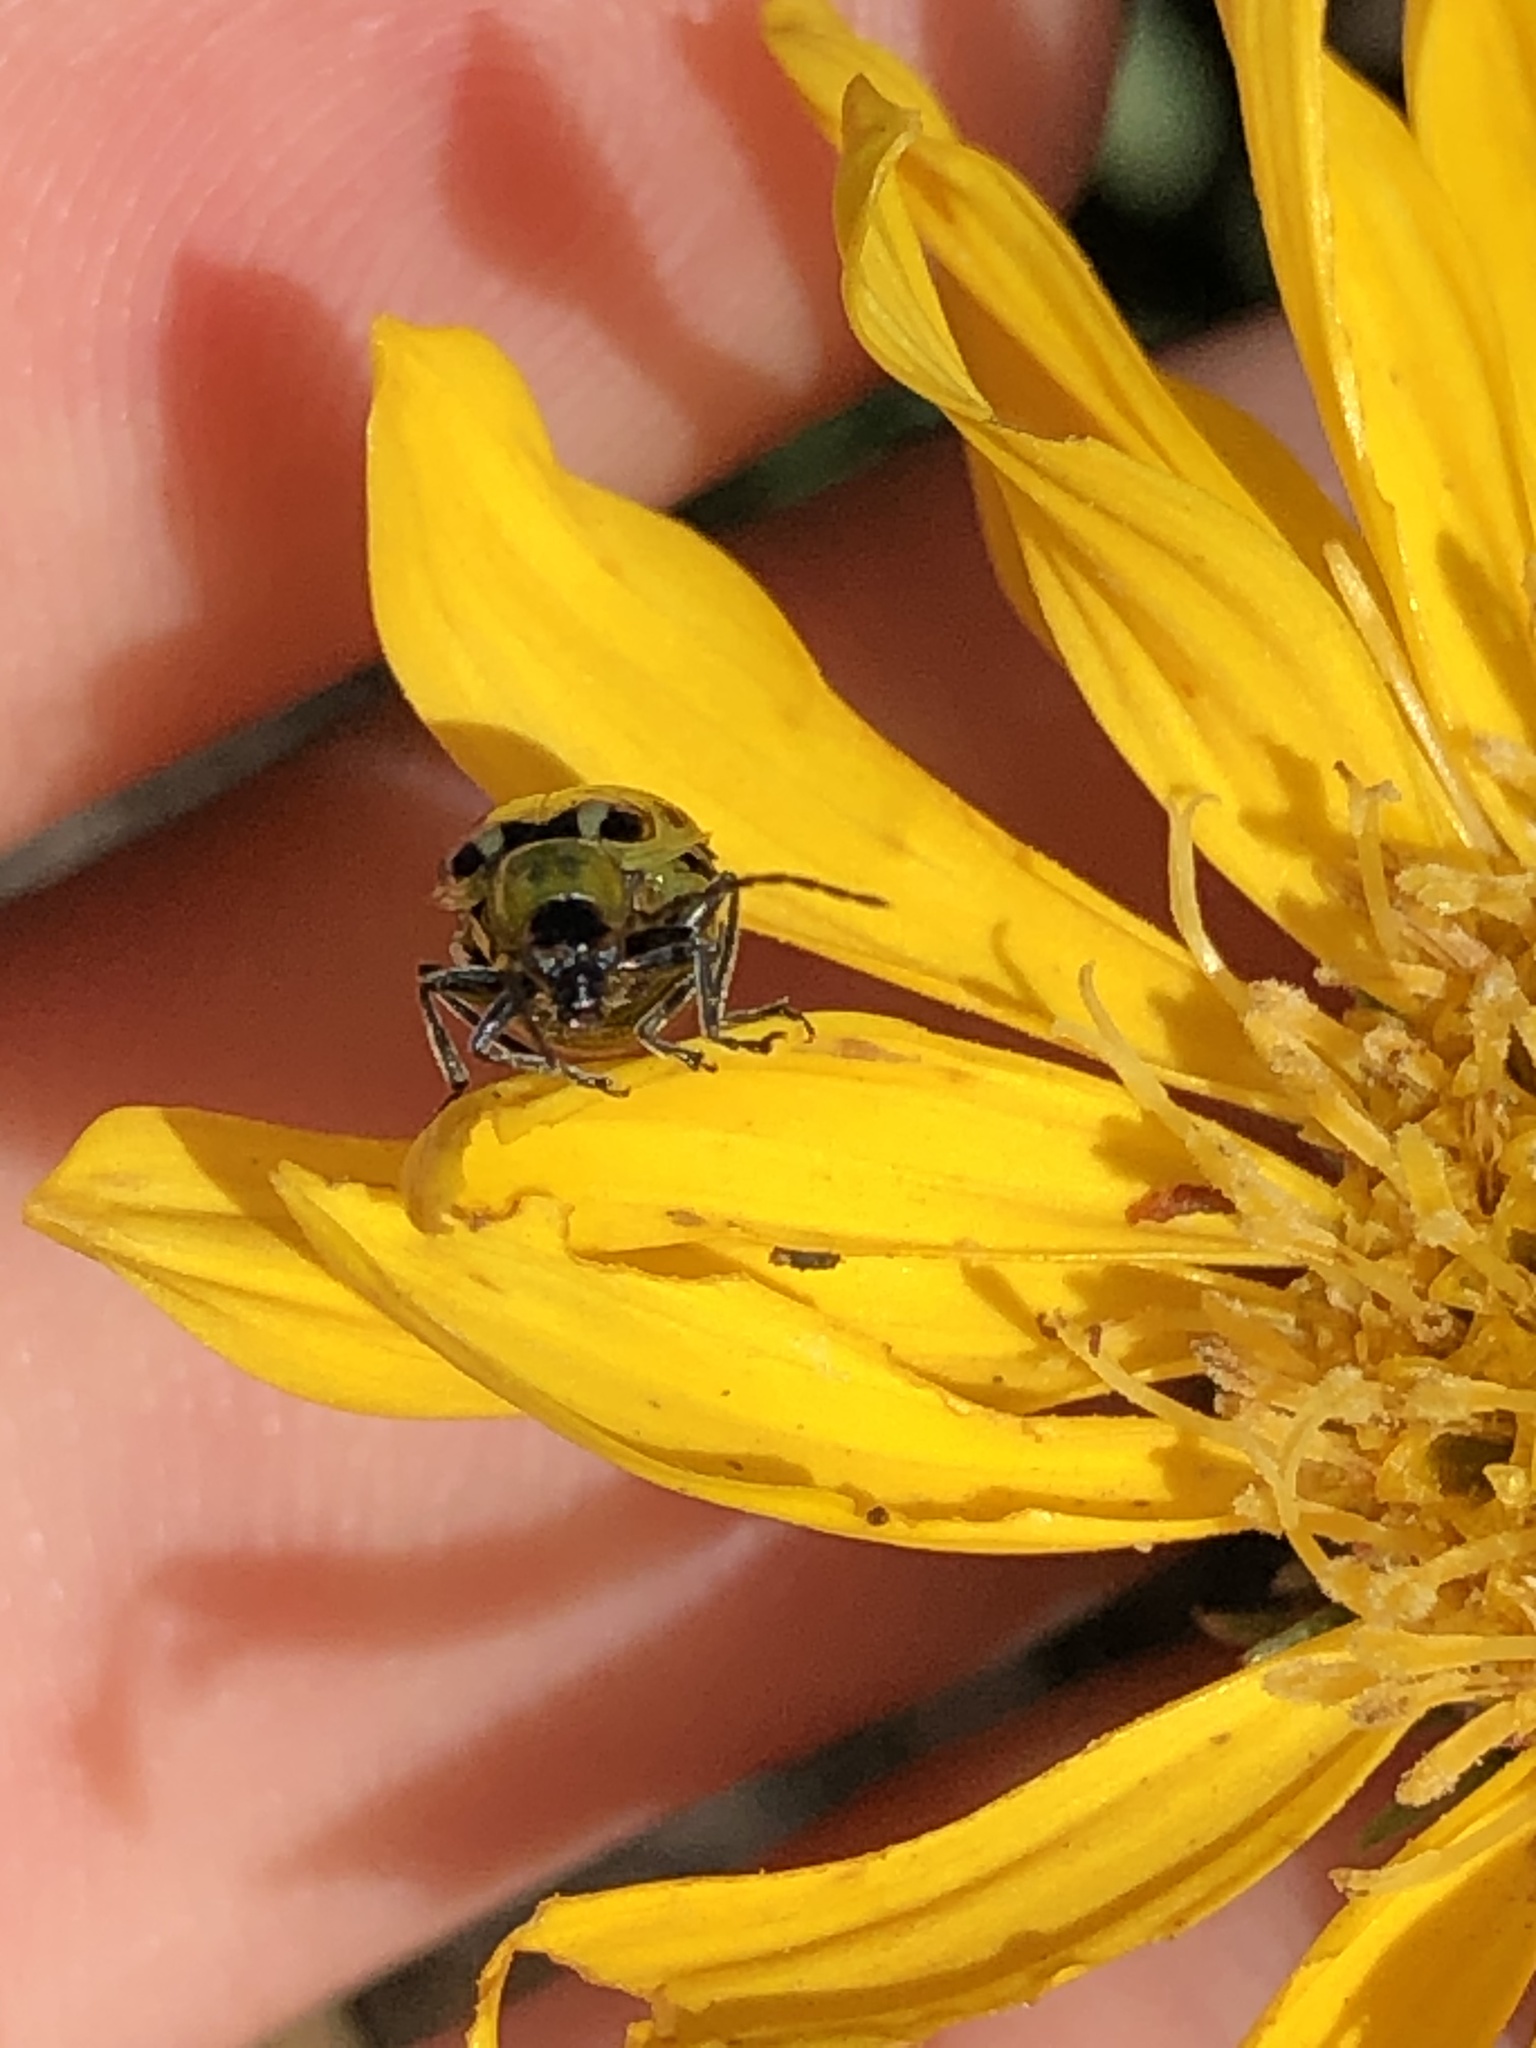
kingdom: Animalia
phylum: Arthropoda
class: Insecta
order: Coleoptera
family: Chrysomelidae
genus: Diabrotica
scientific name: Diabrotica undecimpunctata
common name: Spotted cucumber beetle
